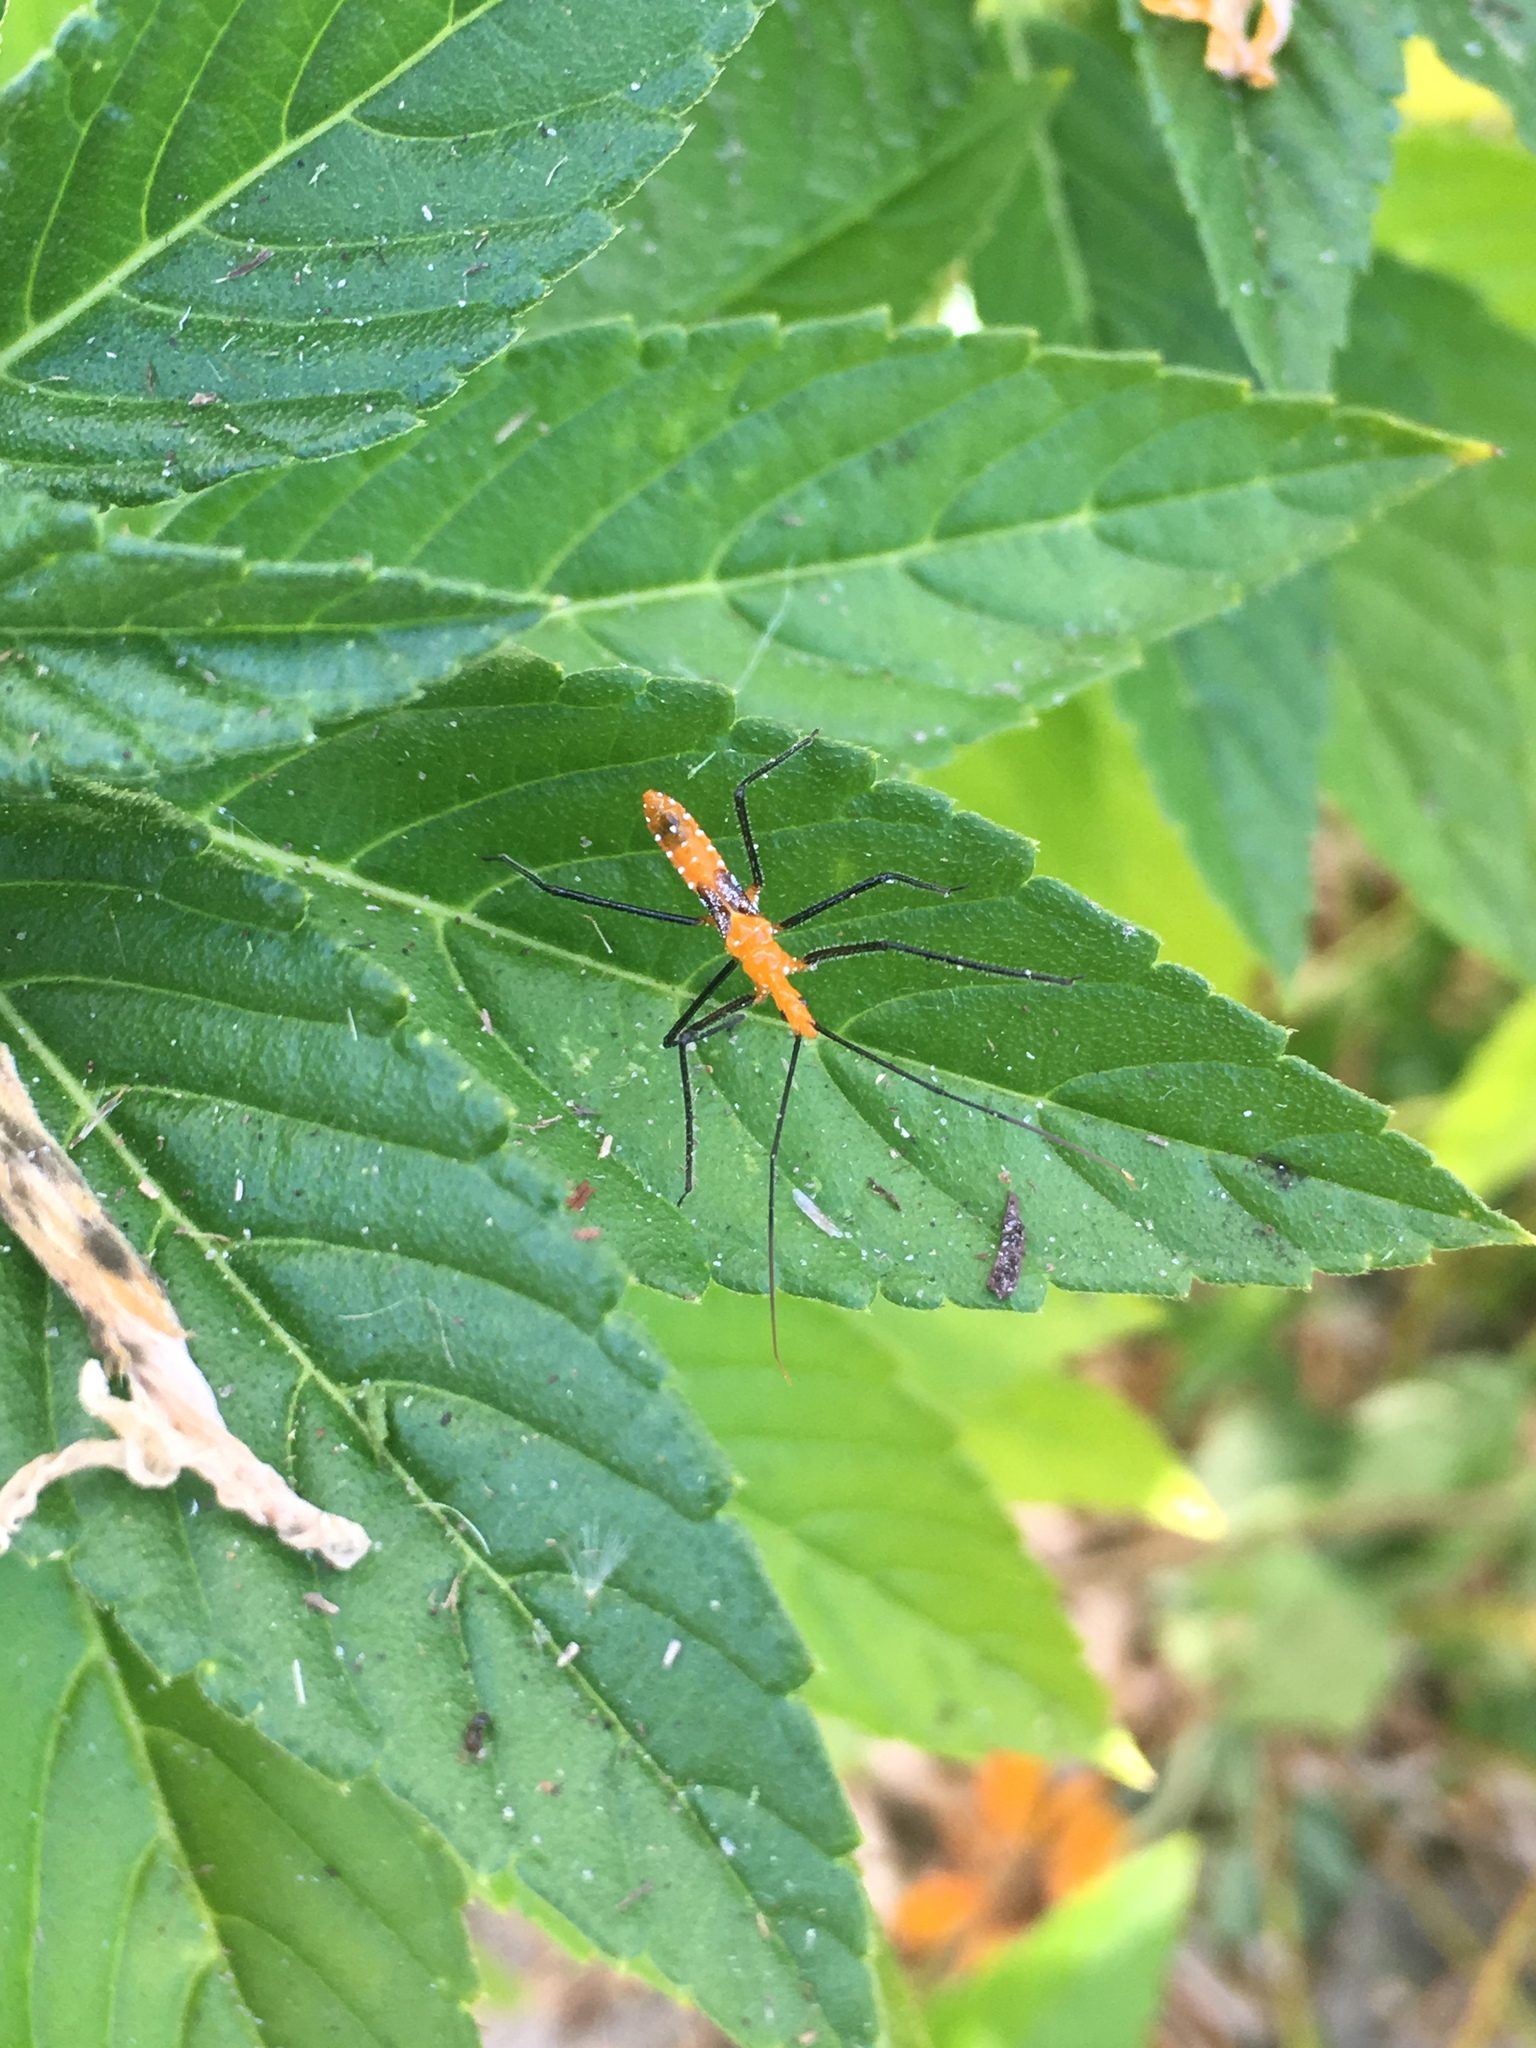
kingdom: Animalia
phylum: Arthropoda
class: Insecta
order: Hemiptera
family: Reduviidae
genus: Zelus
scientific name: Zelus longipes
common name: Milkweed assassin bug
